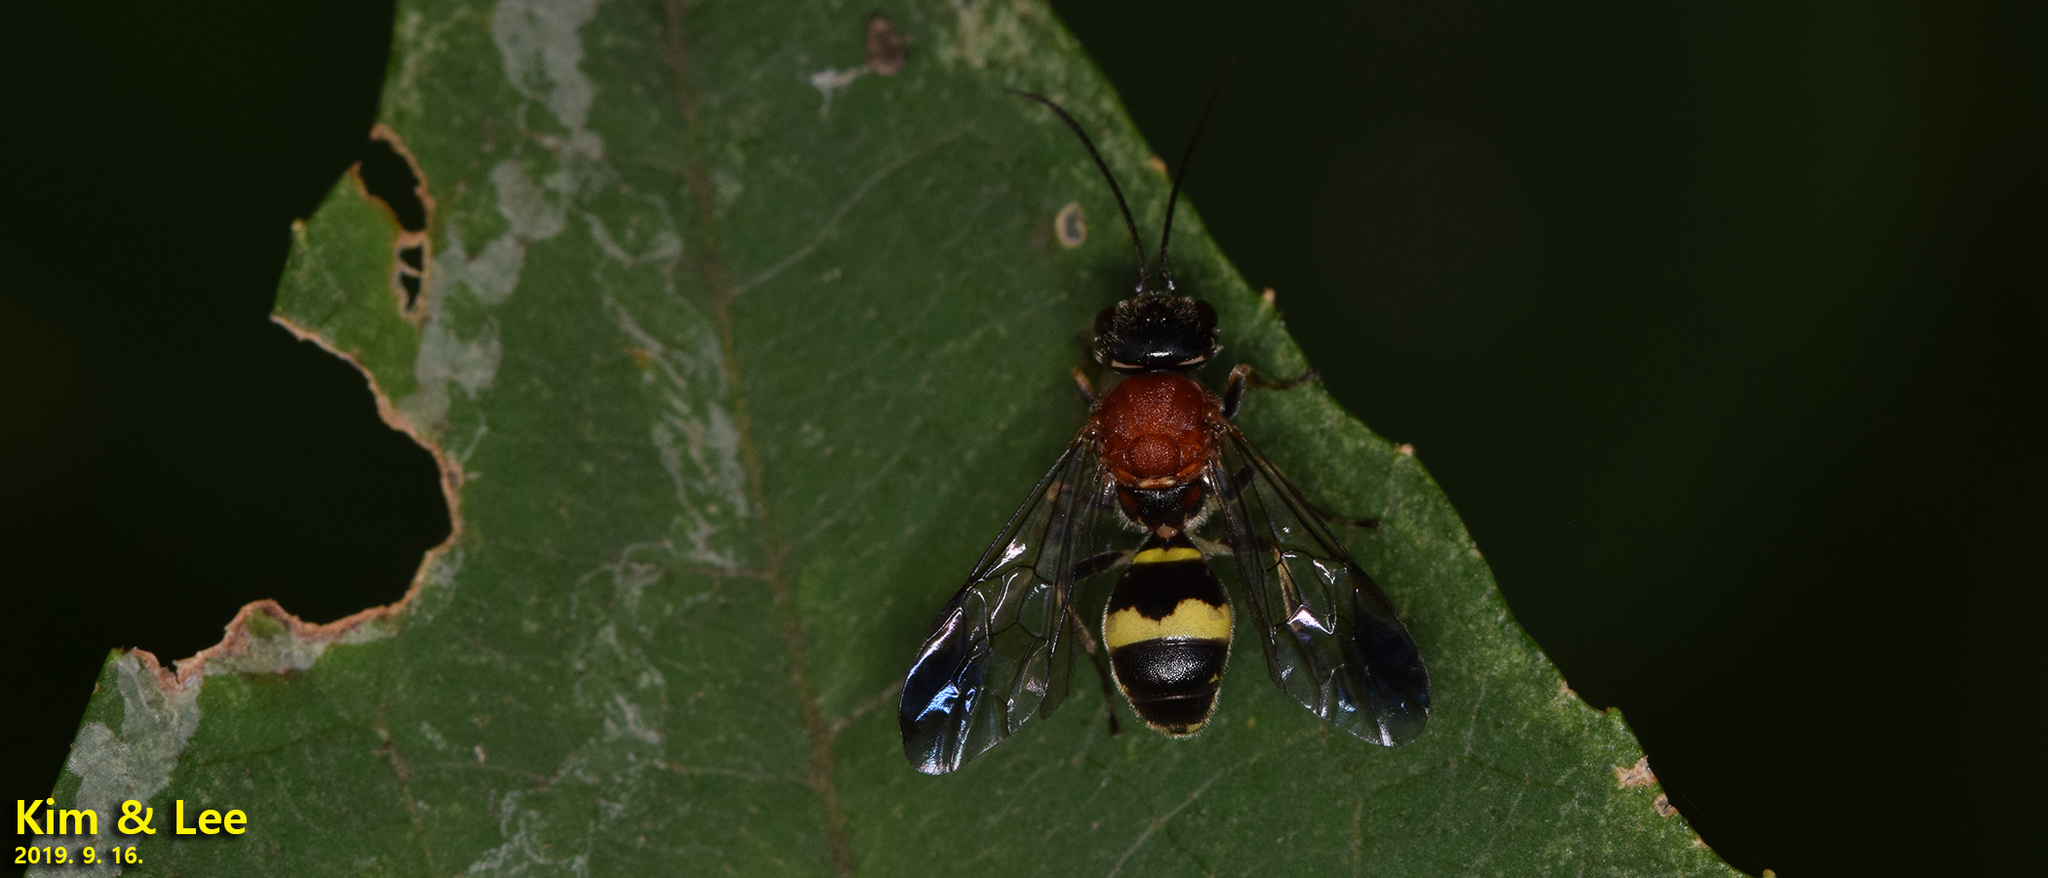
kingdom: Animalia
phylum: Arthropoda
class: Insecta
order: Hymenoptera
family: Trigonalidae
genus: Taeniogonalos
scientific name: Taeniogonalos fasciata
